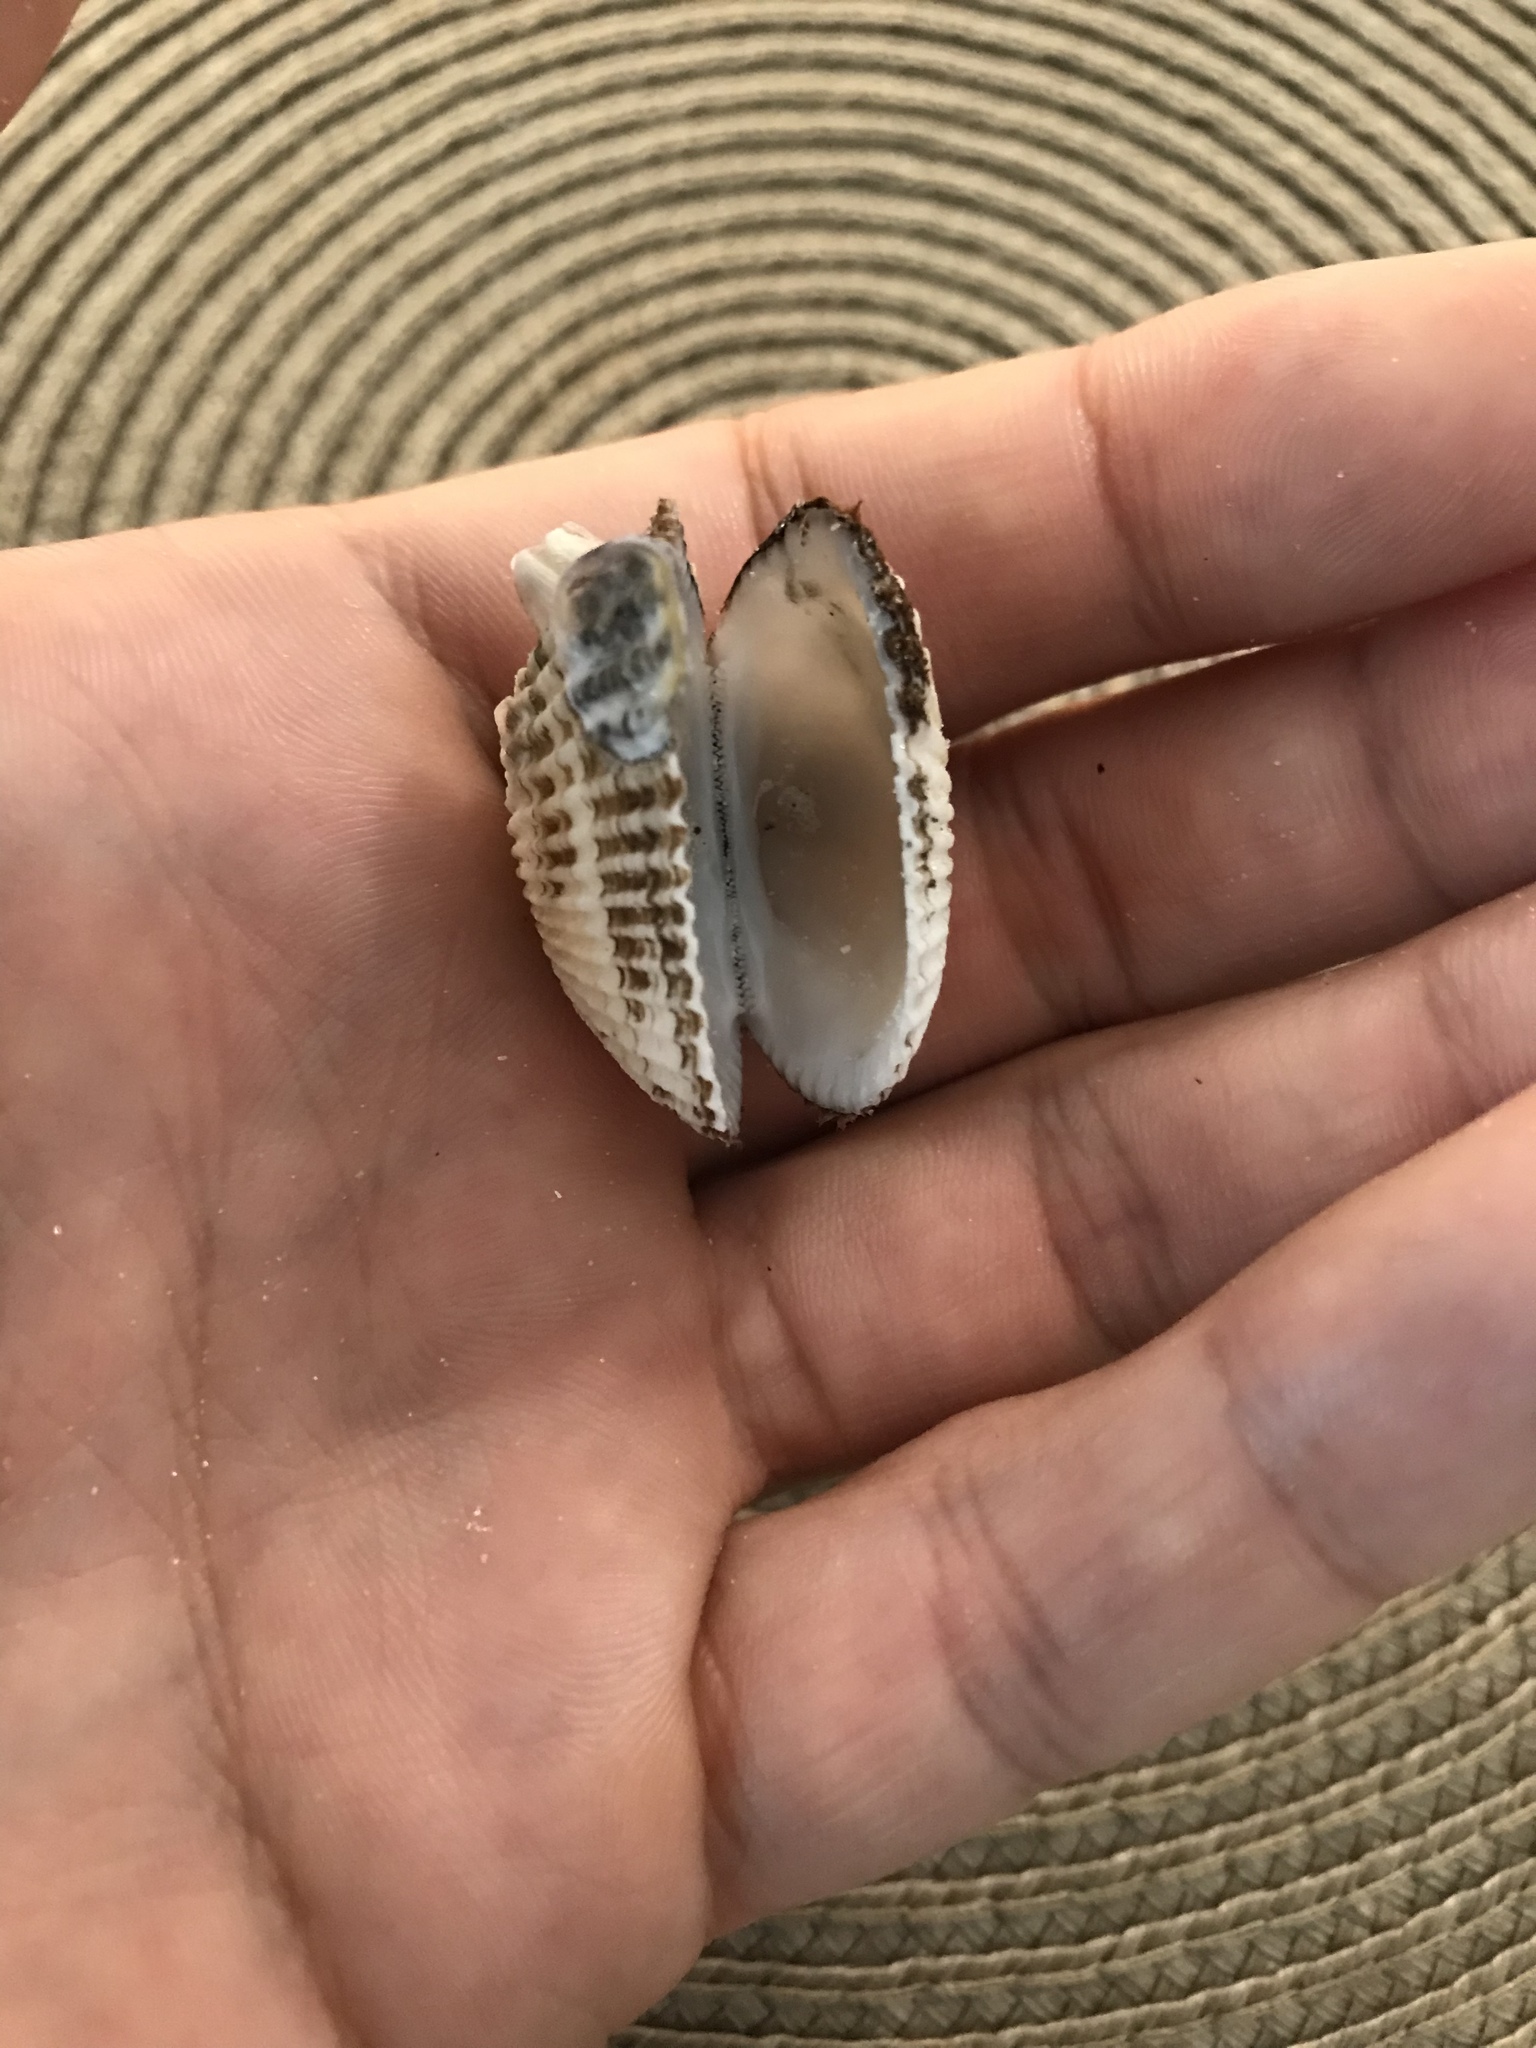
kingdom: Animalia
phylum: Mollusca
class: Bivalvia
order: Arcida
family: Arcidae
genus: Anadara
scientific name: Anadara transversa
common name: Transverse ark
